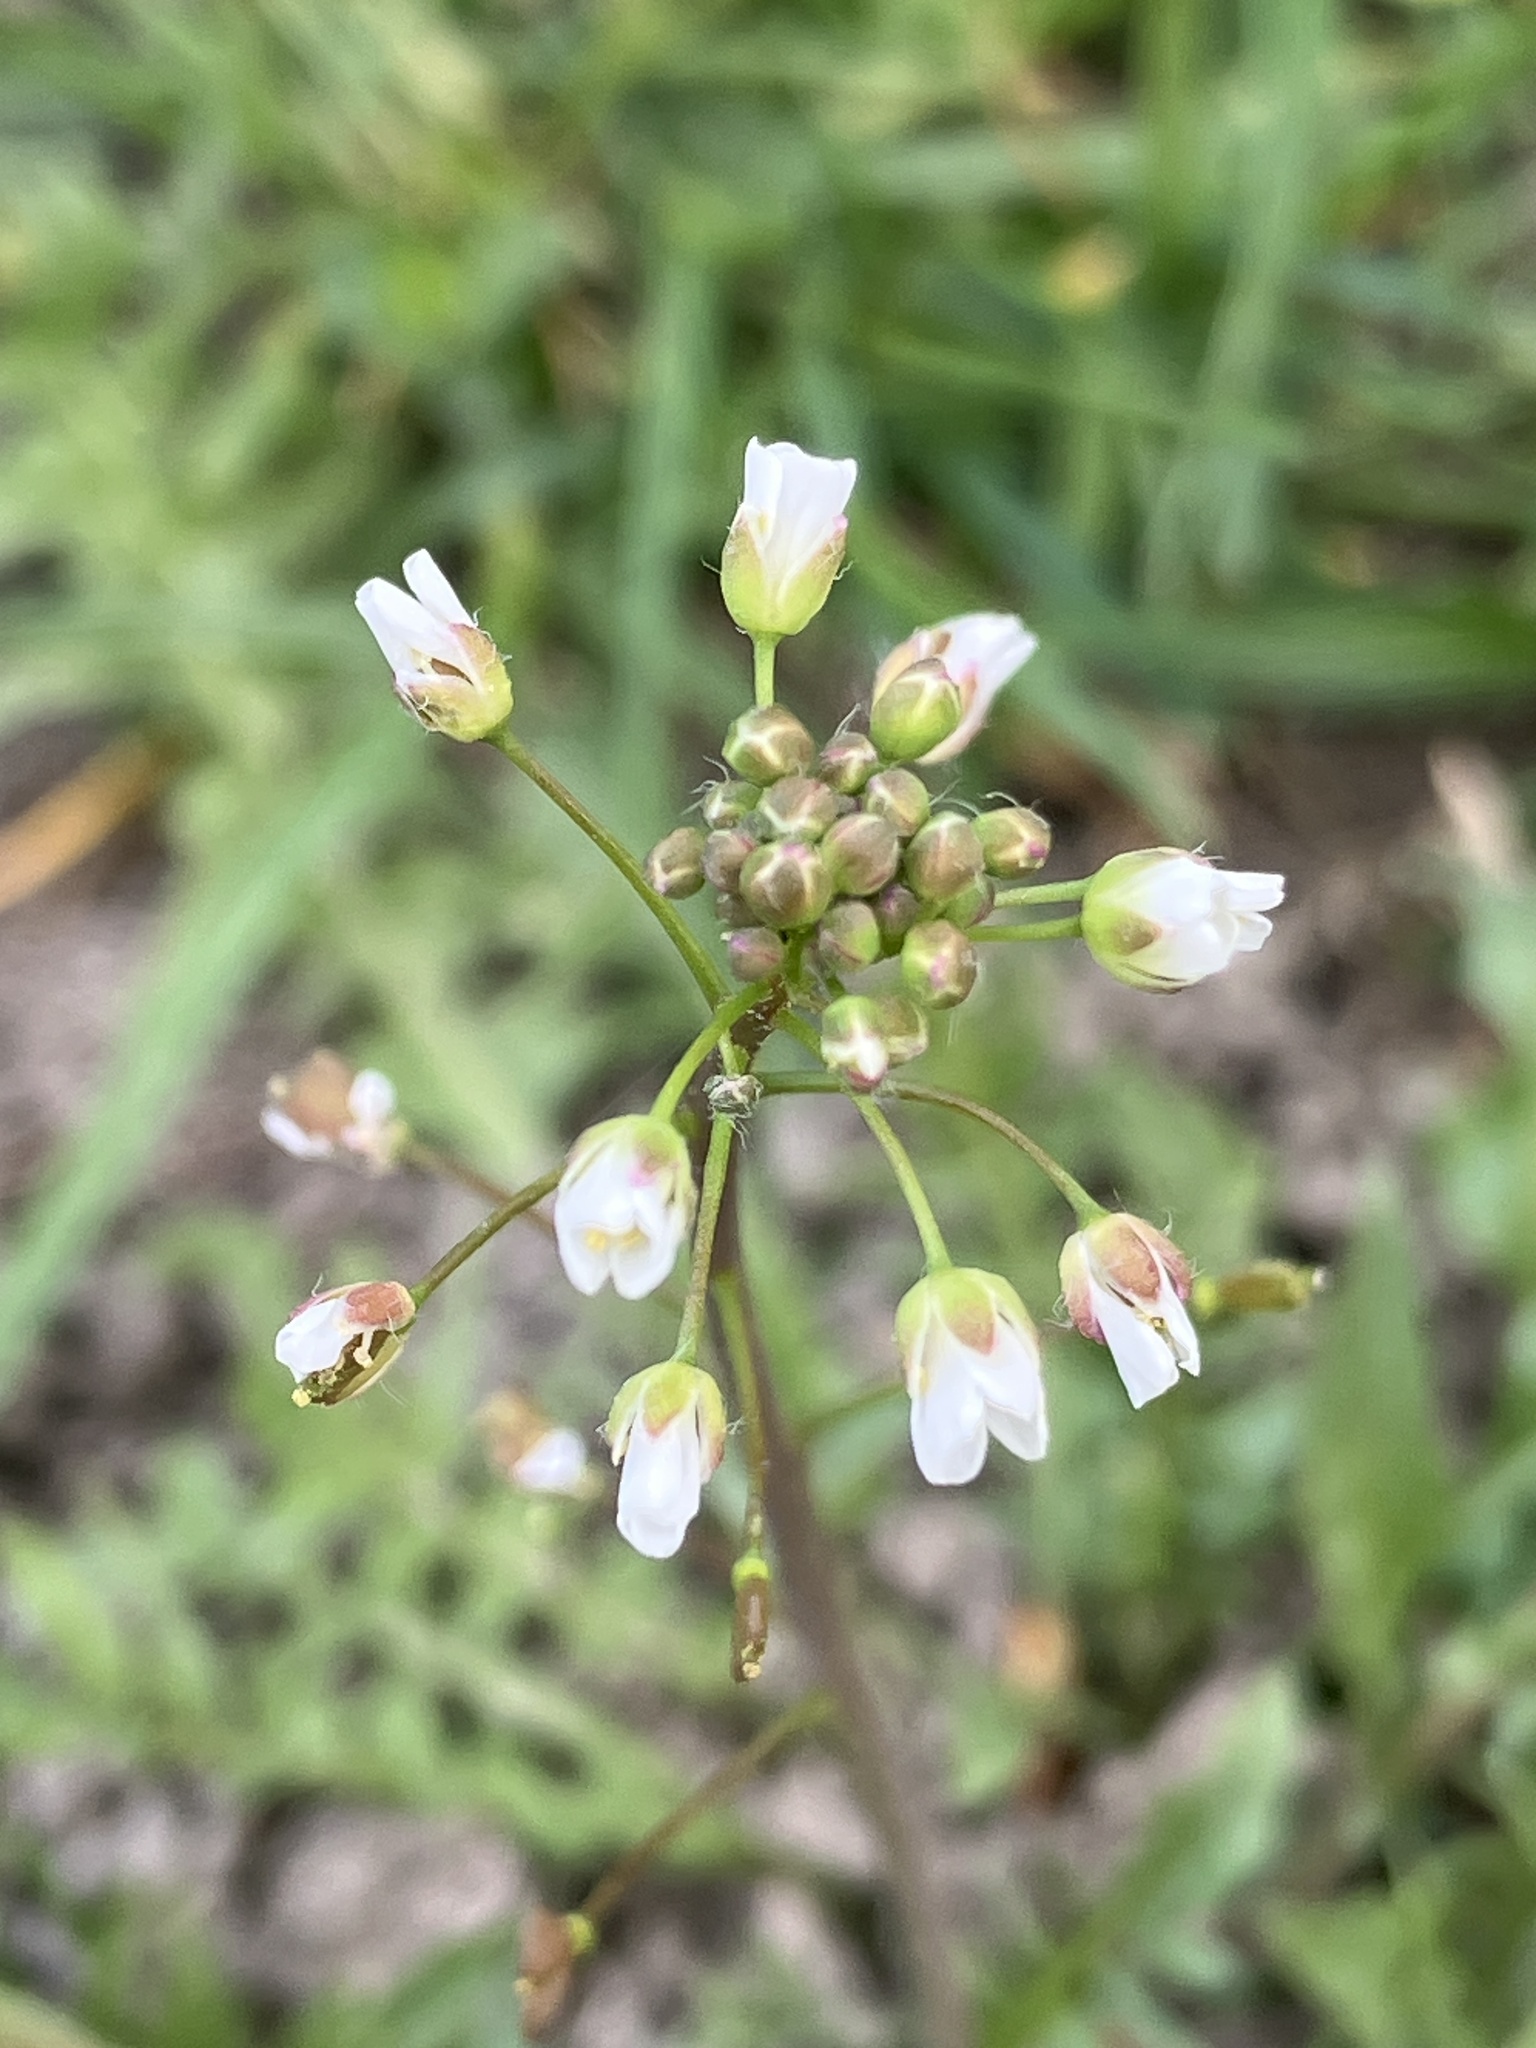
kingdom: Plantae
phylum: Tracheophyta
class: Magnoliopsida
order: Brassicales
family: Brassicaceae
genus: Capsella
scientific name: Capsella bursa-pastoris
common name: Shepherd's purse
